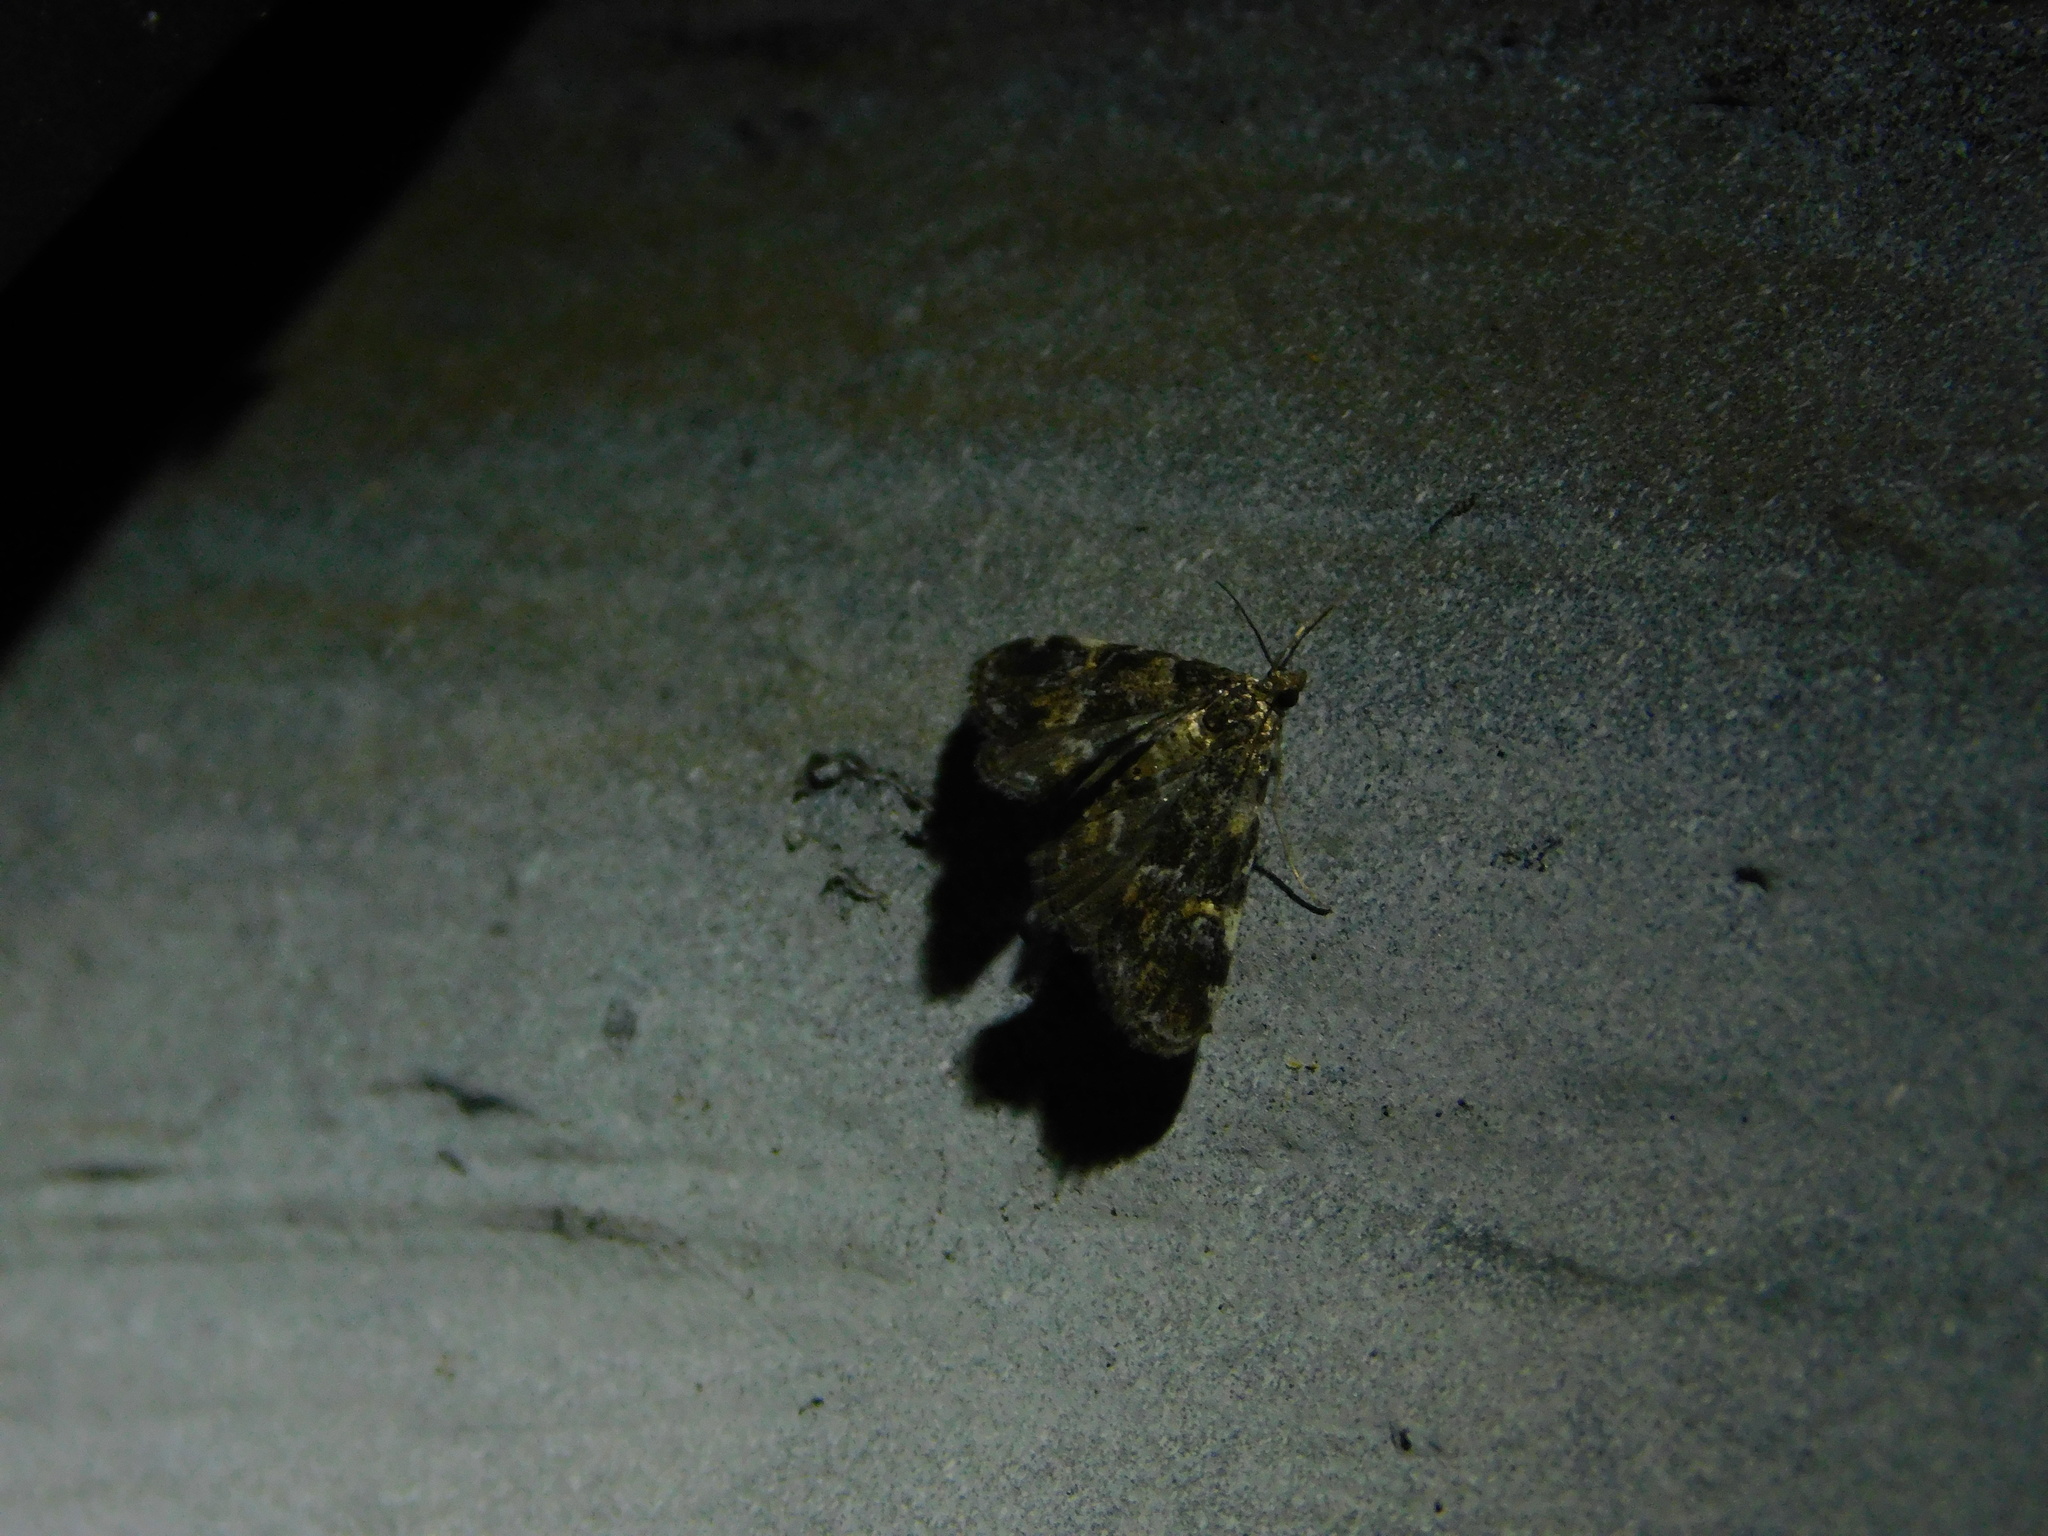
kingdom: Animalia
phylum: Arthropoda
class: Insecta
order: Lepidoptera
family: Crambidae
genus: Elophila
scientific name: Elophila obliteralis
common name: Waterlily leafcutter moth
